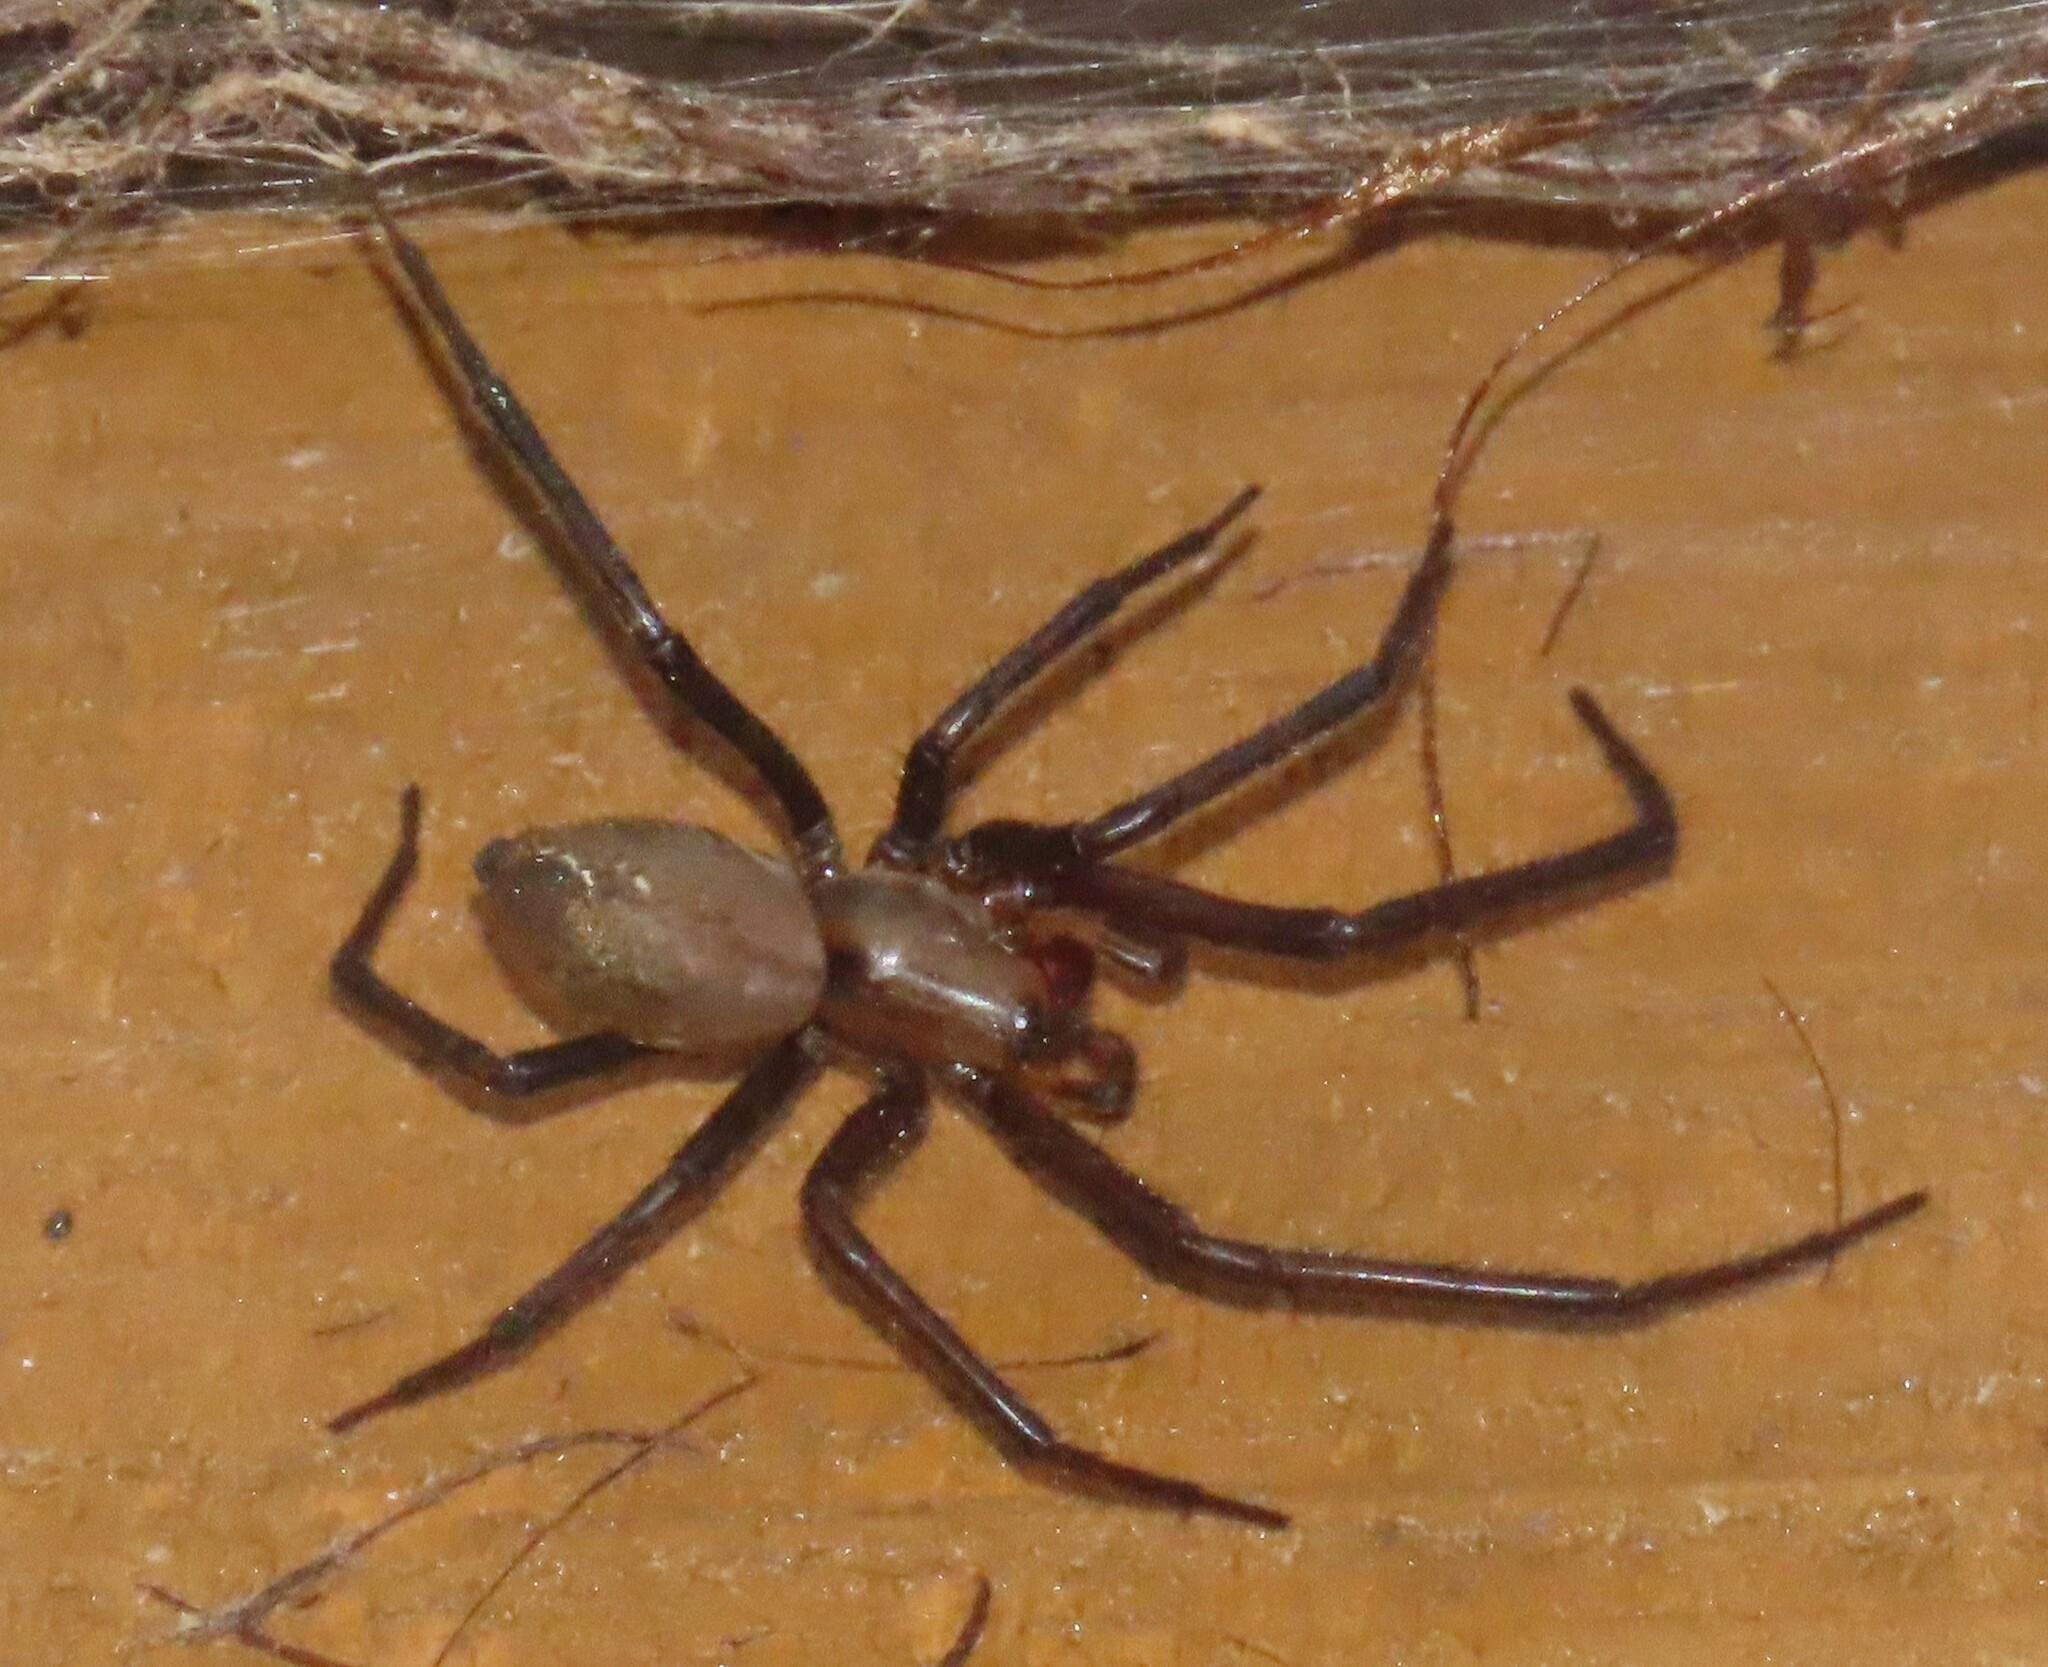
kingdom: Animalia
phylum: Arthropoda
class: Arachnida
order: Araneae
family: Desidae
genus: Cambridgea
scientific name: Cambridgea foliata
